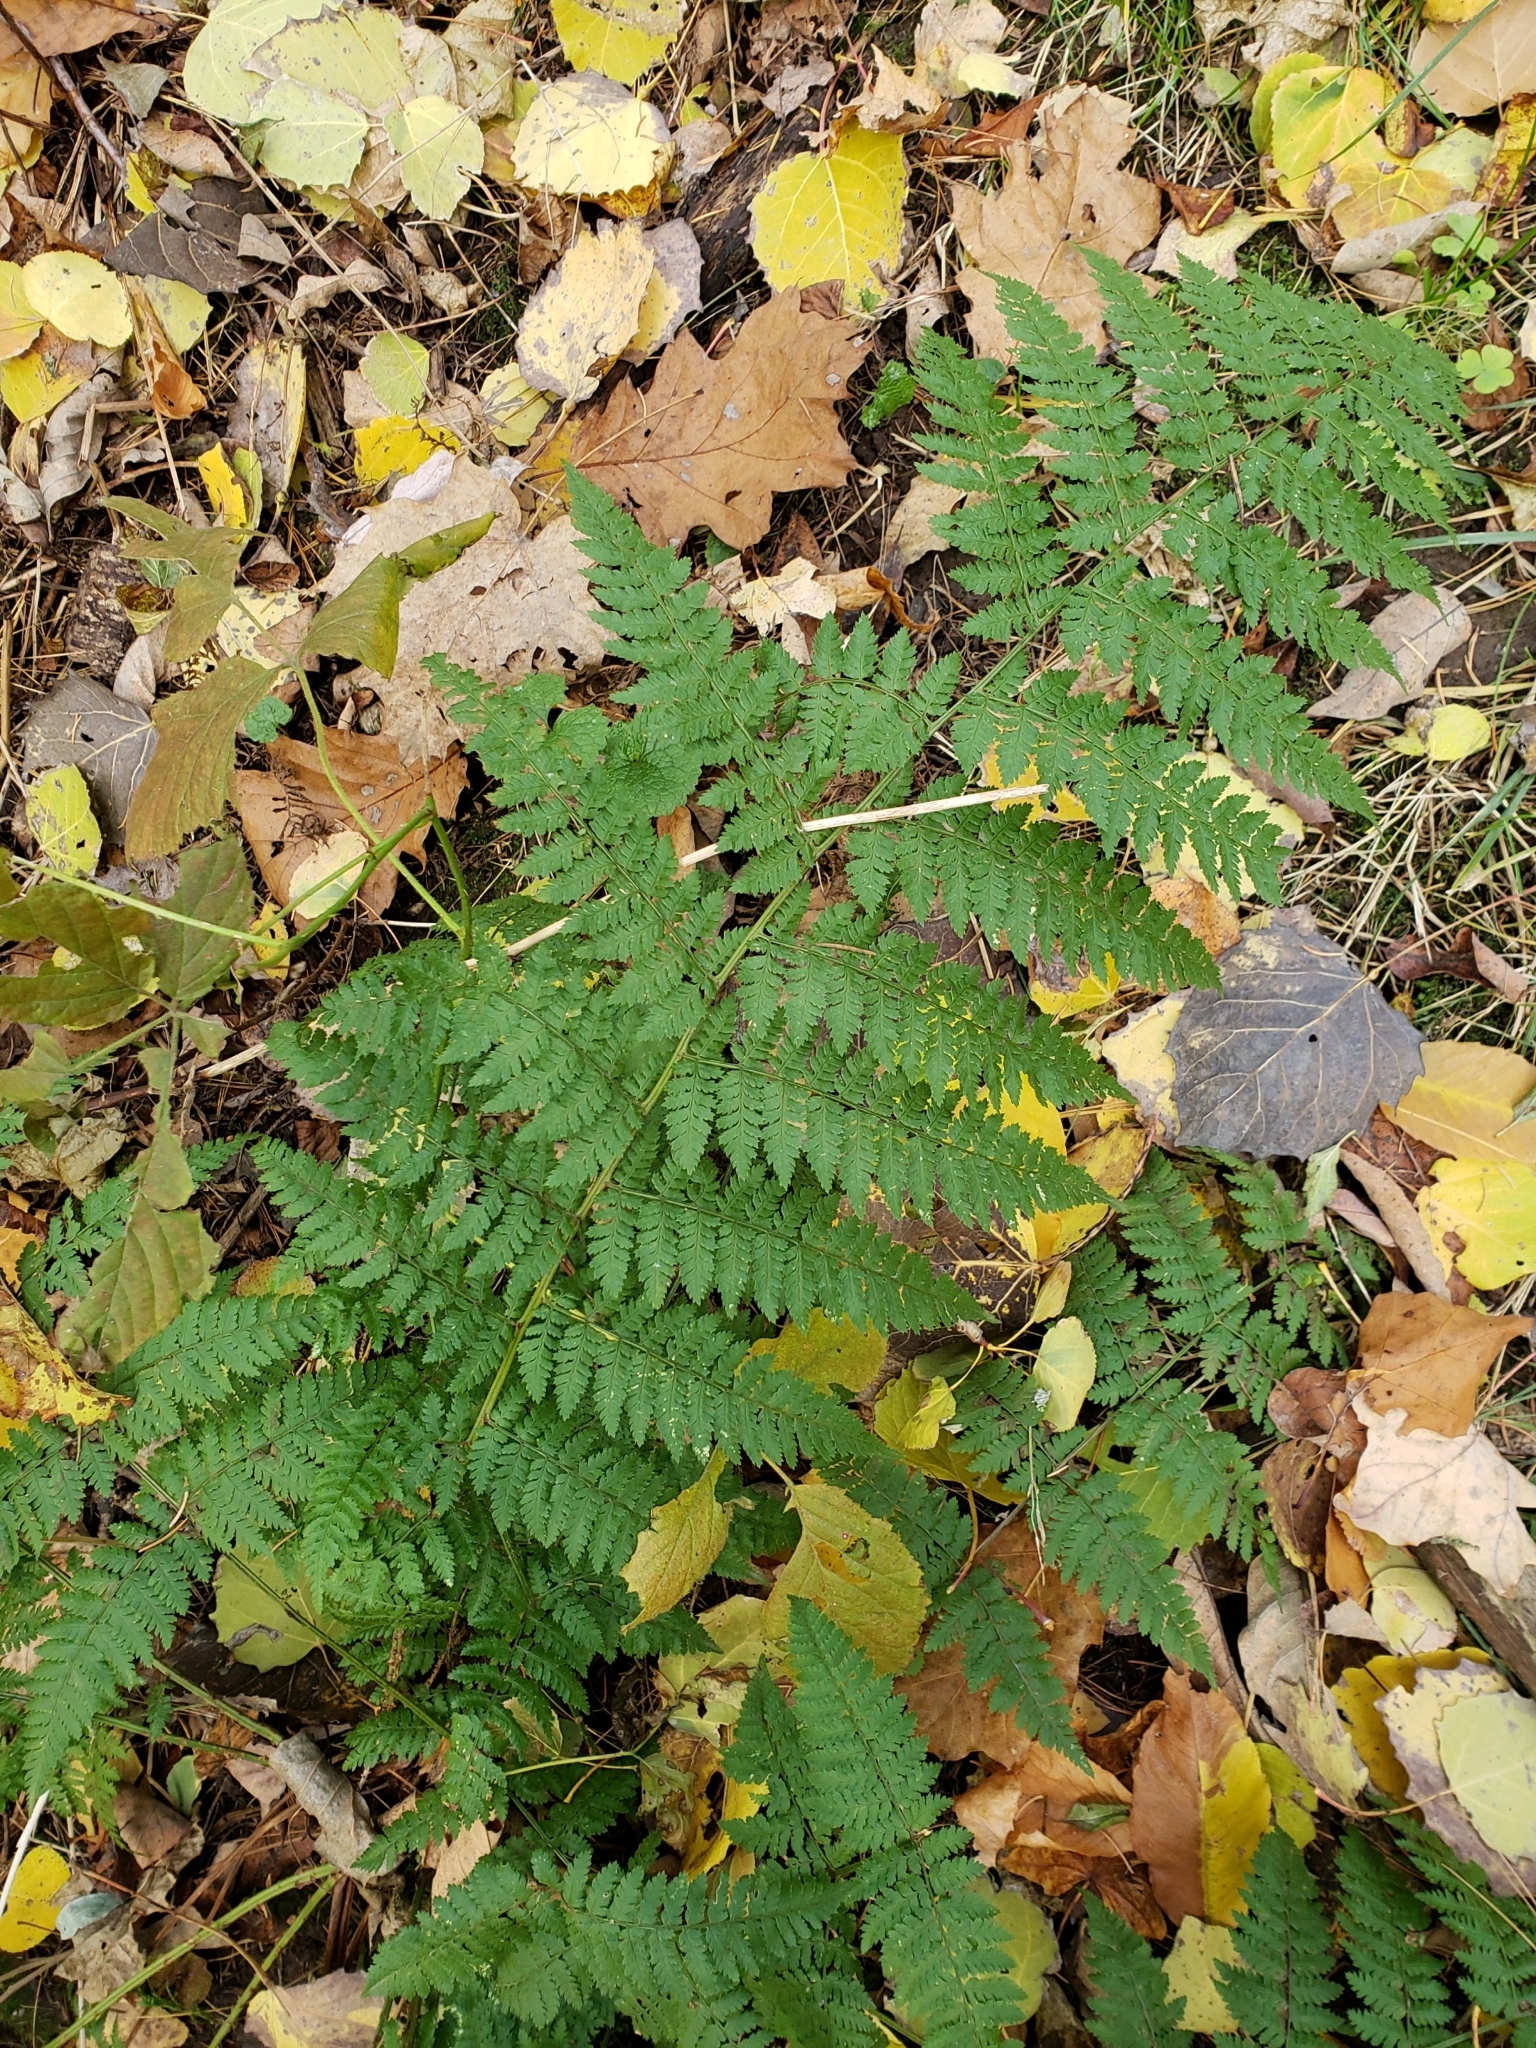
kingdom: Plantae
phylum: Tracheophyta
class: Polypodiopsida
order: Polypodiales
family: Dryopteridaceae
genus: Dryopteris
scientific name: Dryopteris intermedia
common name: Evergreen wood fern
